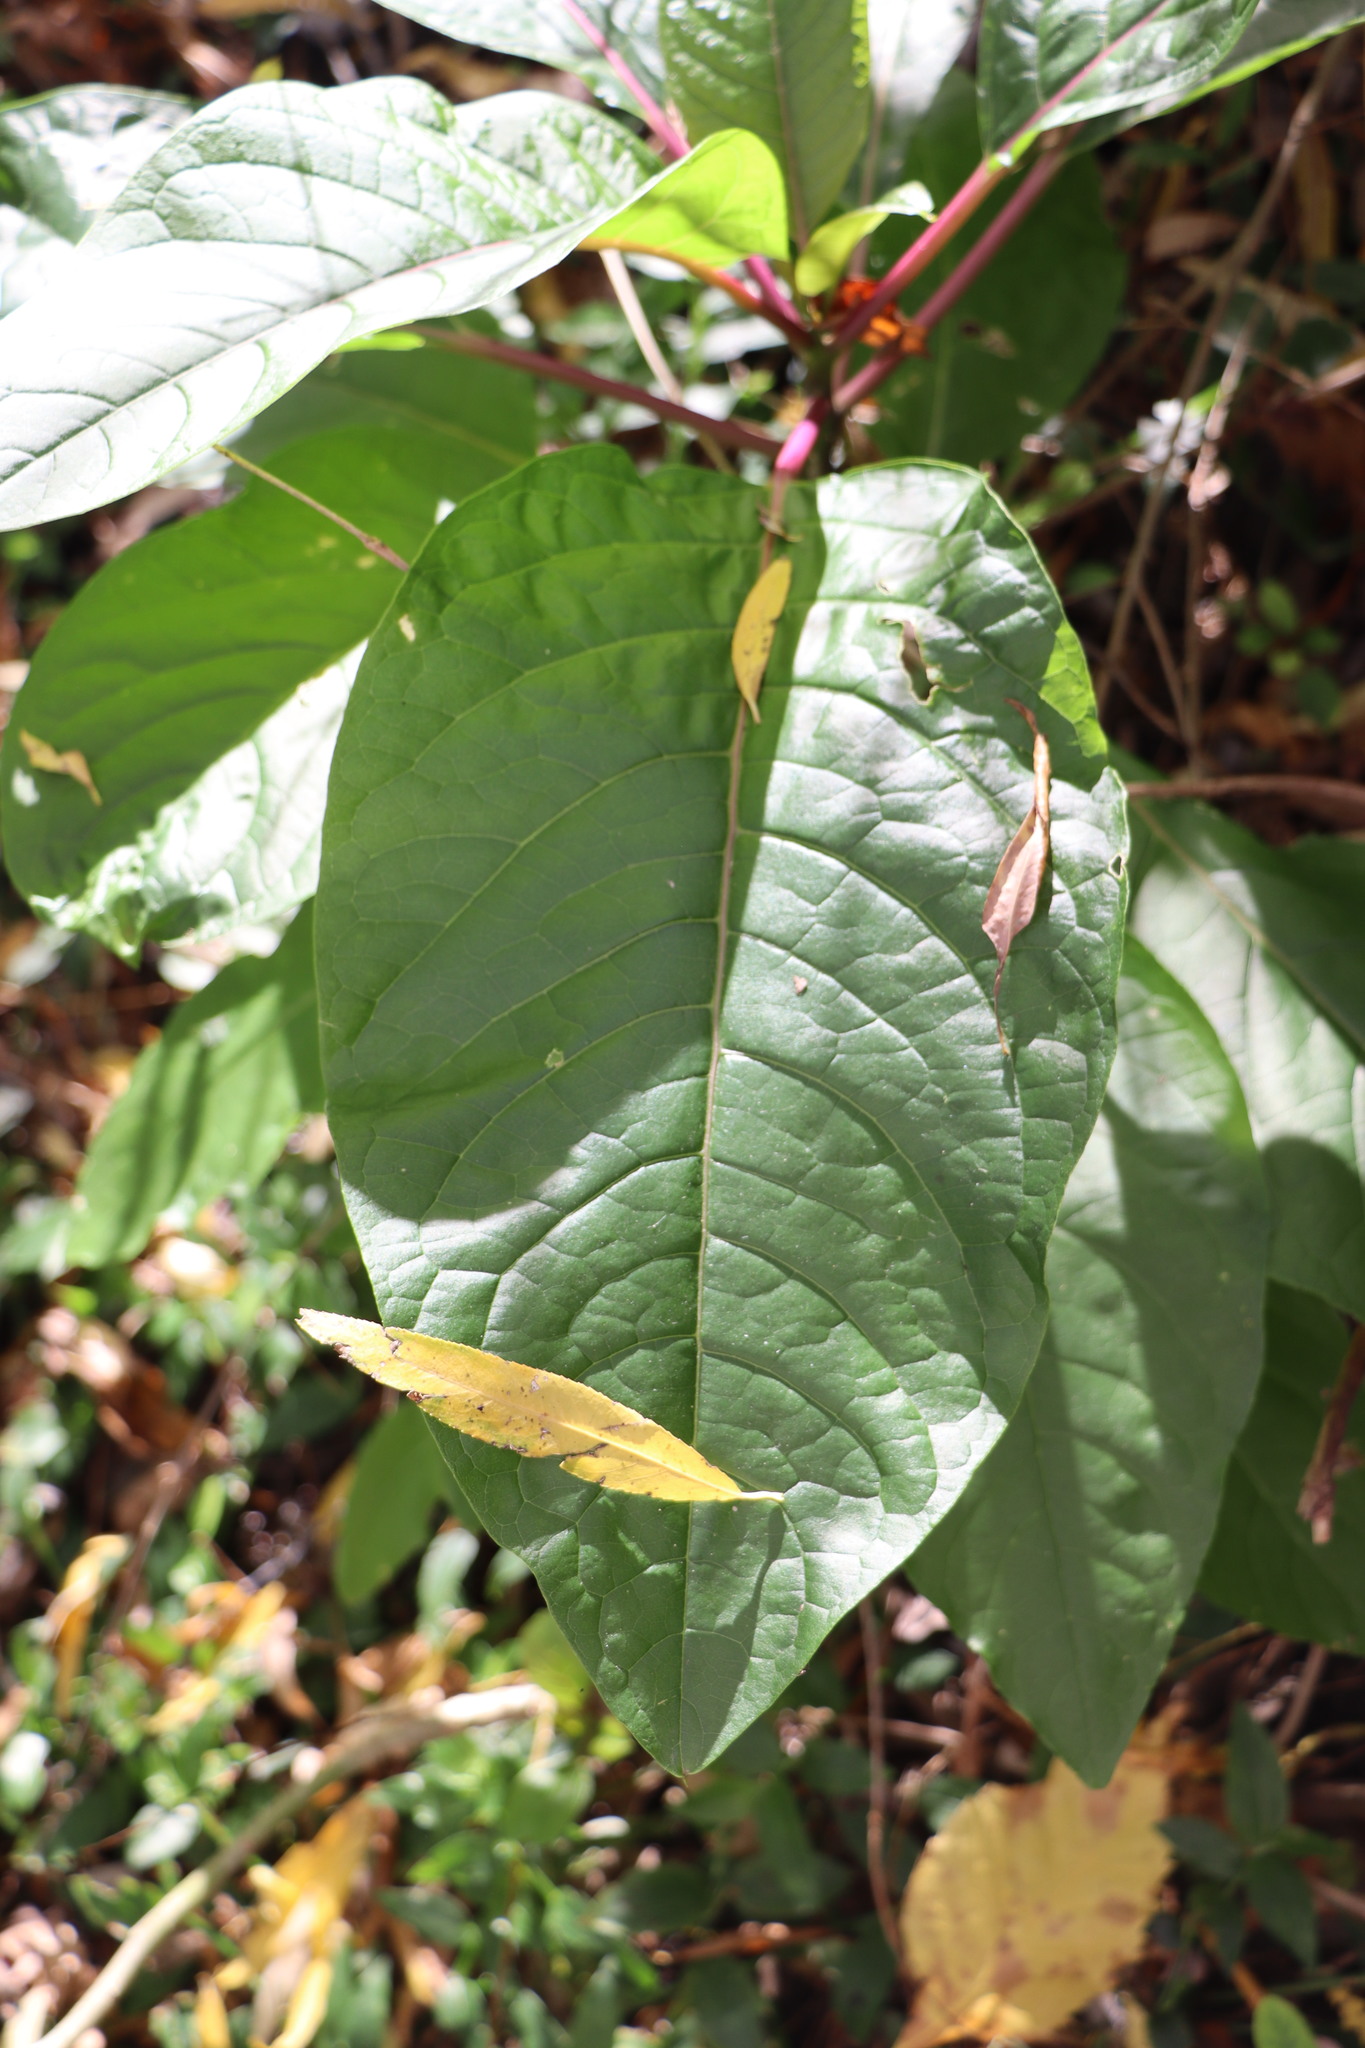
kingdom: Plantae
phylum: Tracheophyta
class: Magnoliopsida
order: Caryophyllales
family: Phytolaccaceae
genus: Phytolacca
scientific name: Phytolacca dioica
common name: Pokeweed
